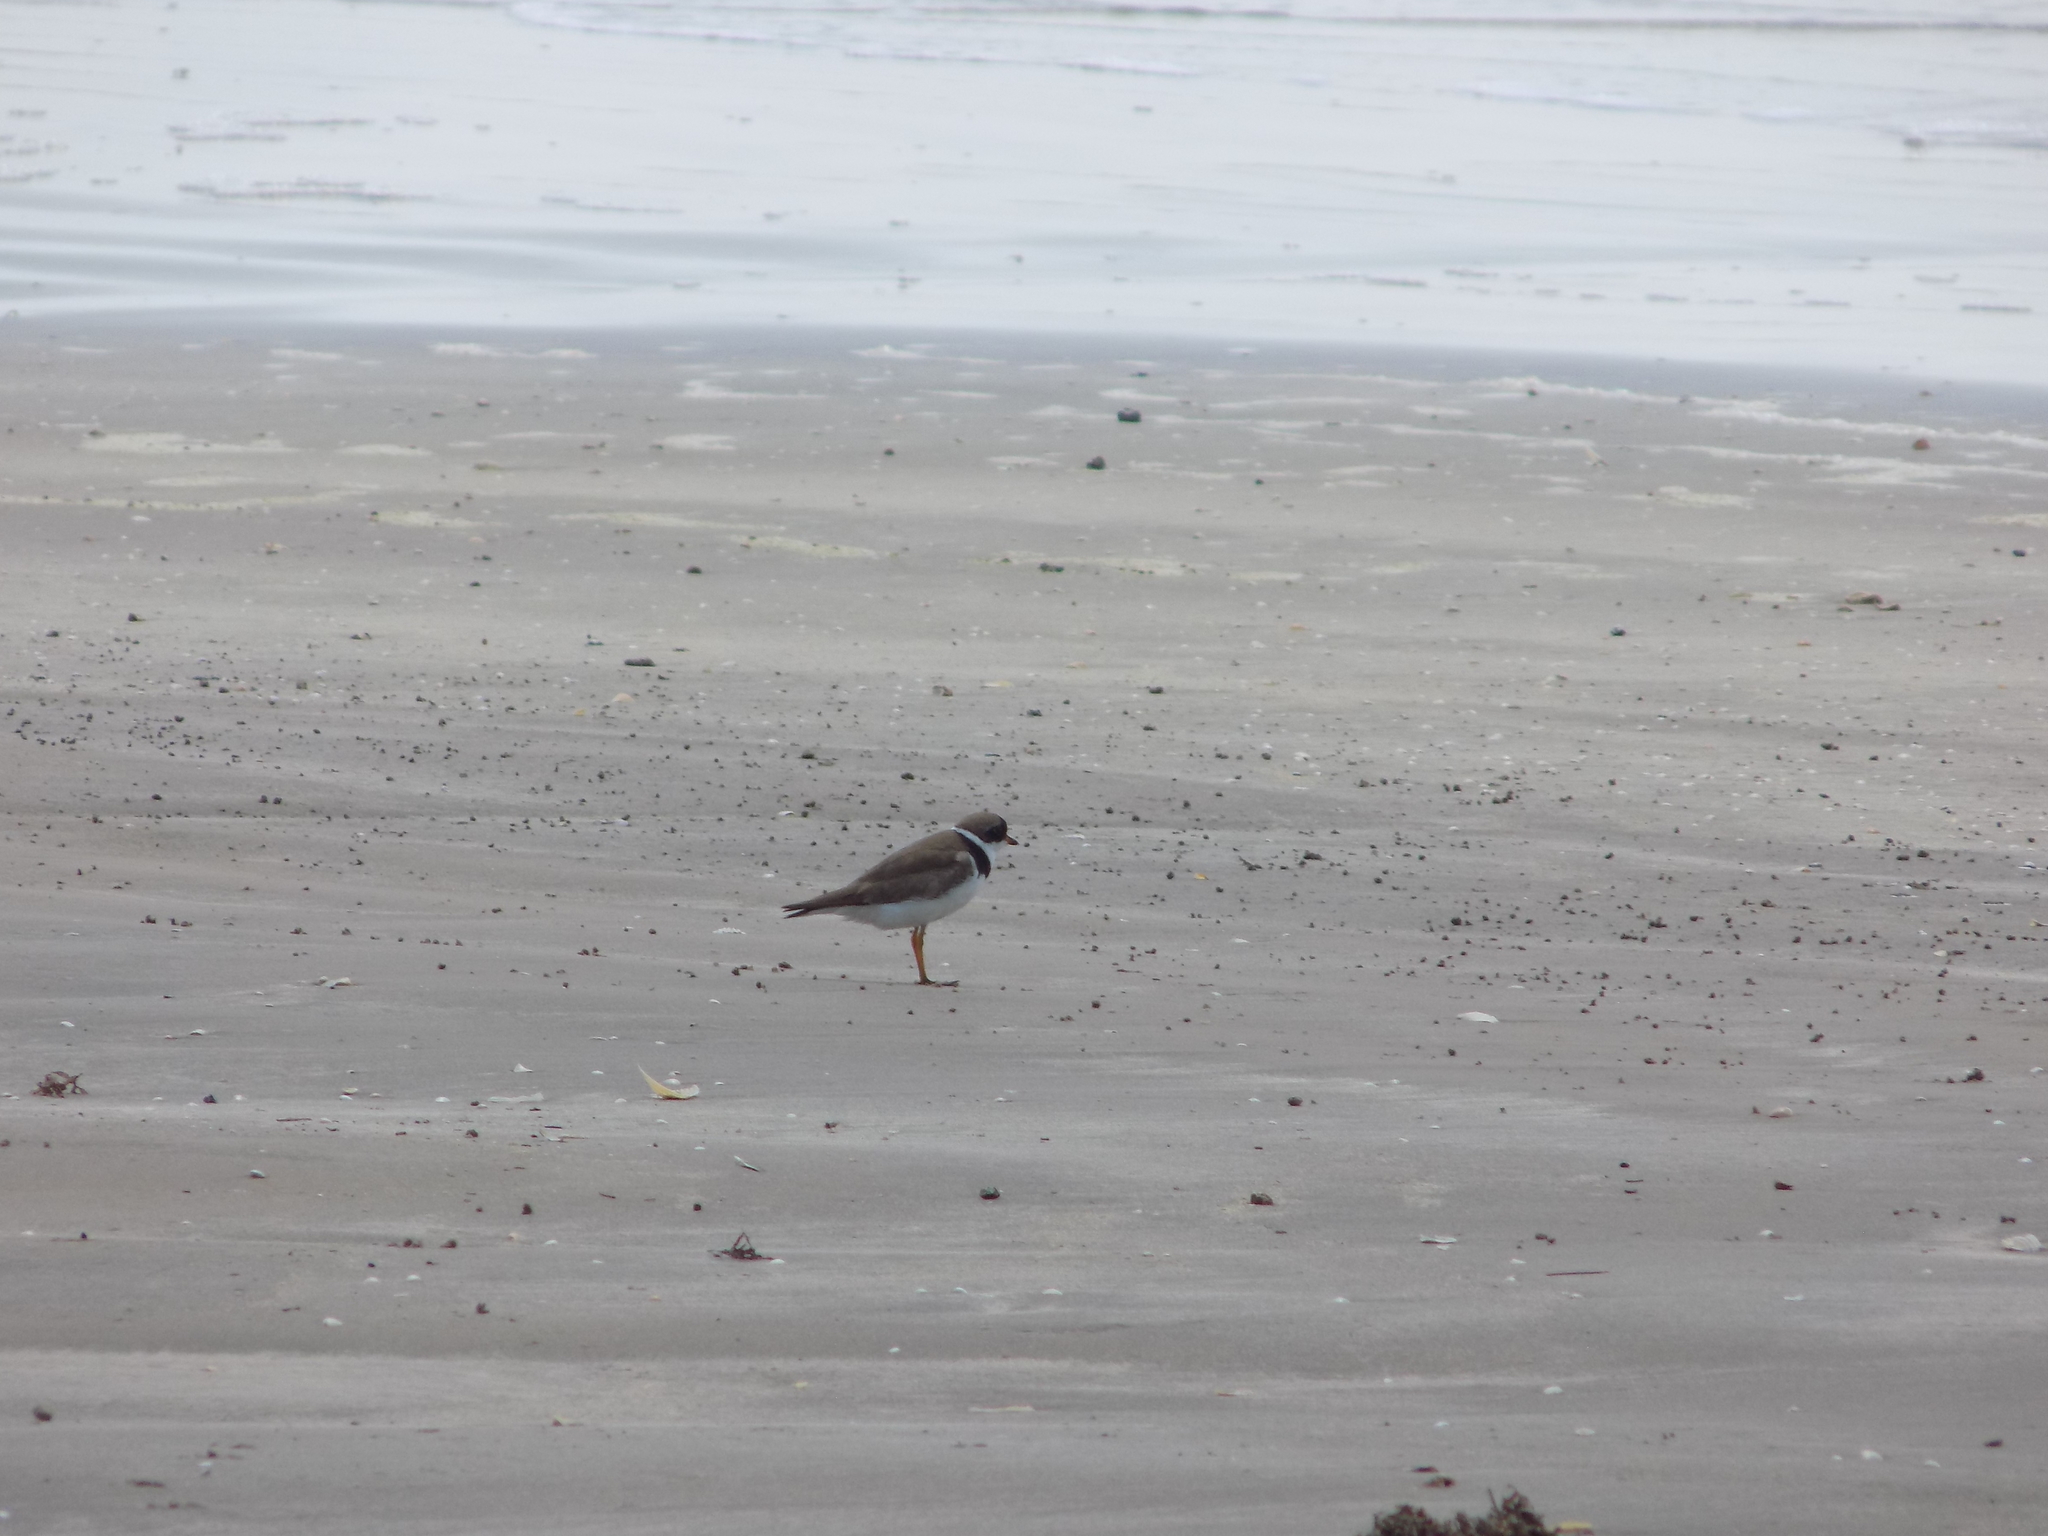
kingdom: Animalia
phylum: Chordata
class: Aves
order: Charadriiformes
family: Charadriidae
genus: Charadrius
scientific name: Charadrius semipalmatus
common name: Semipalmated plover
